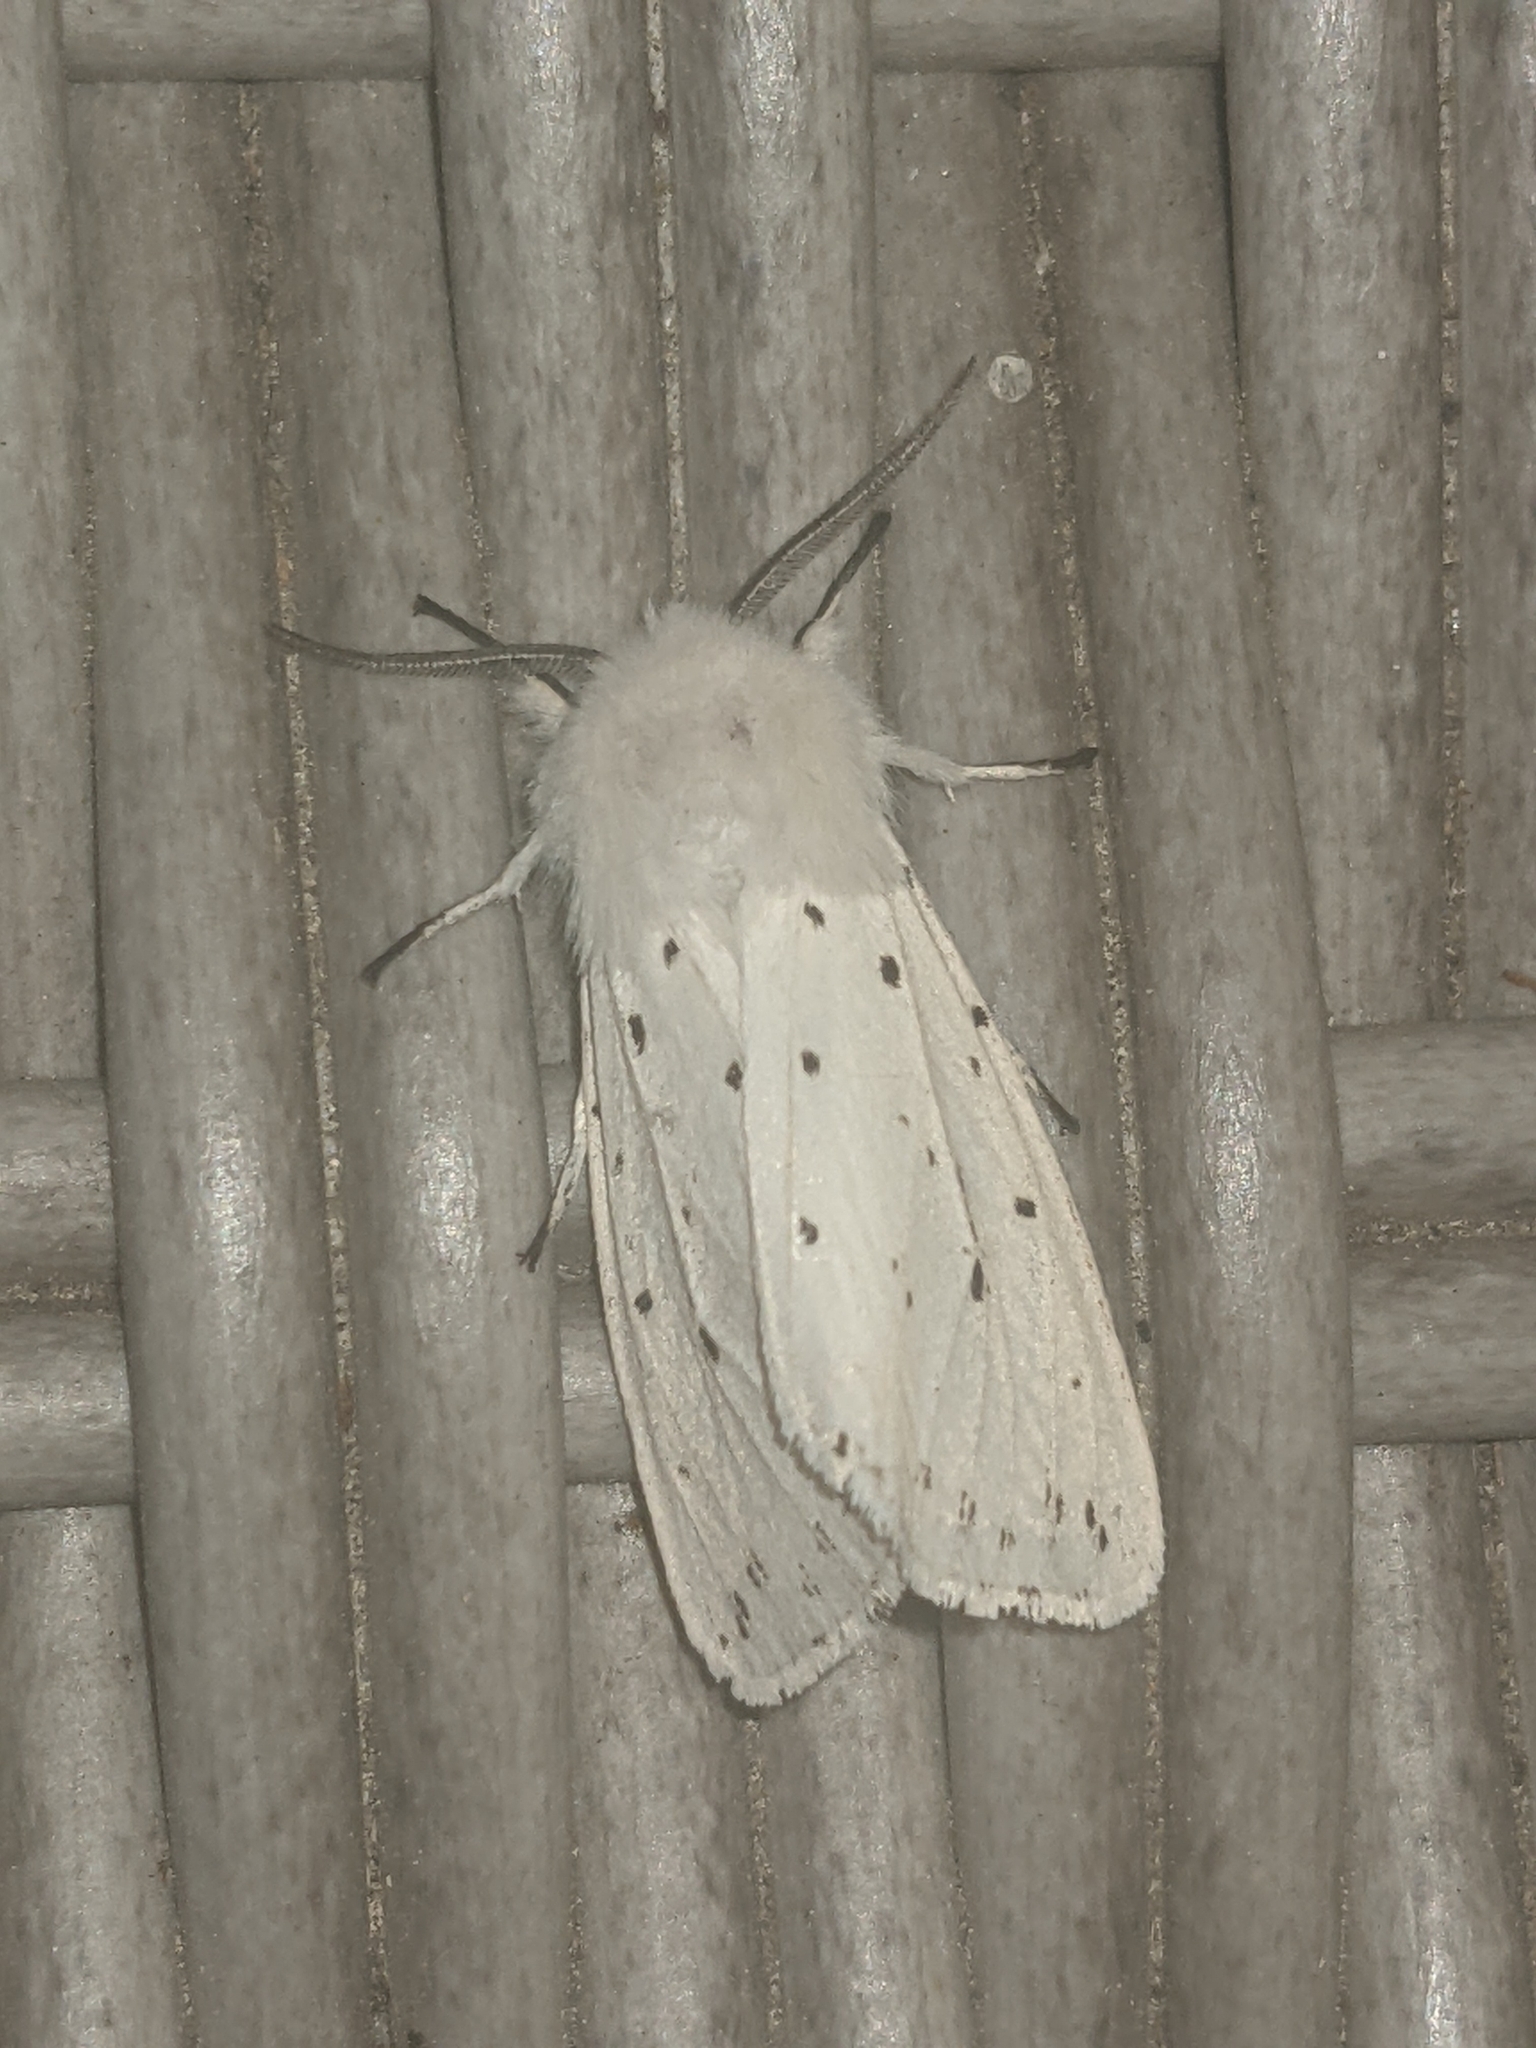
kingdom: Animalia
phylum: Arthropoda
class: Insecta
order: Lepidoptera
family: Erebidae
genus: Spilosoma
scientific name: Spilosoma lubricipeda
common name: White ermine
